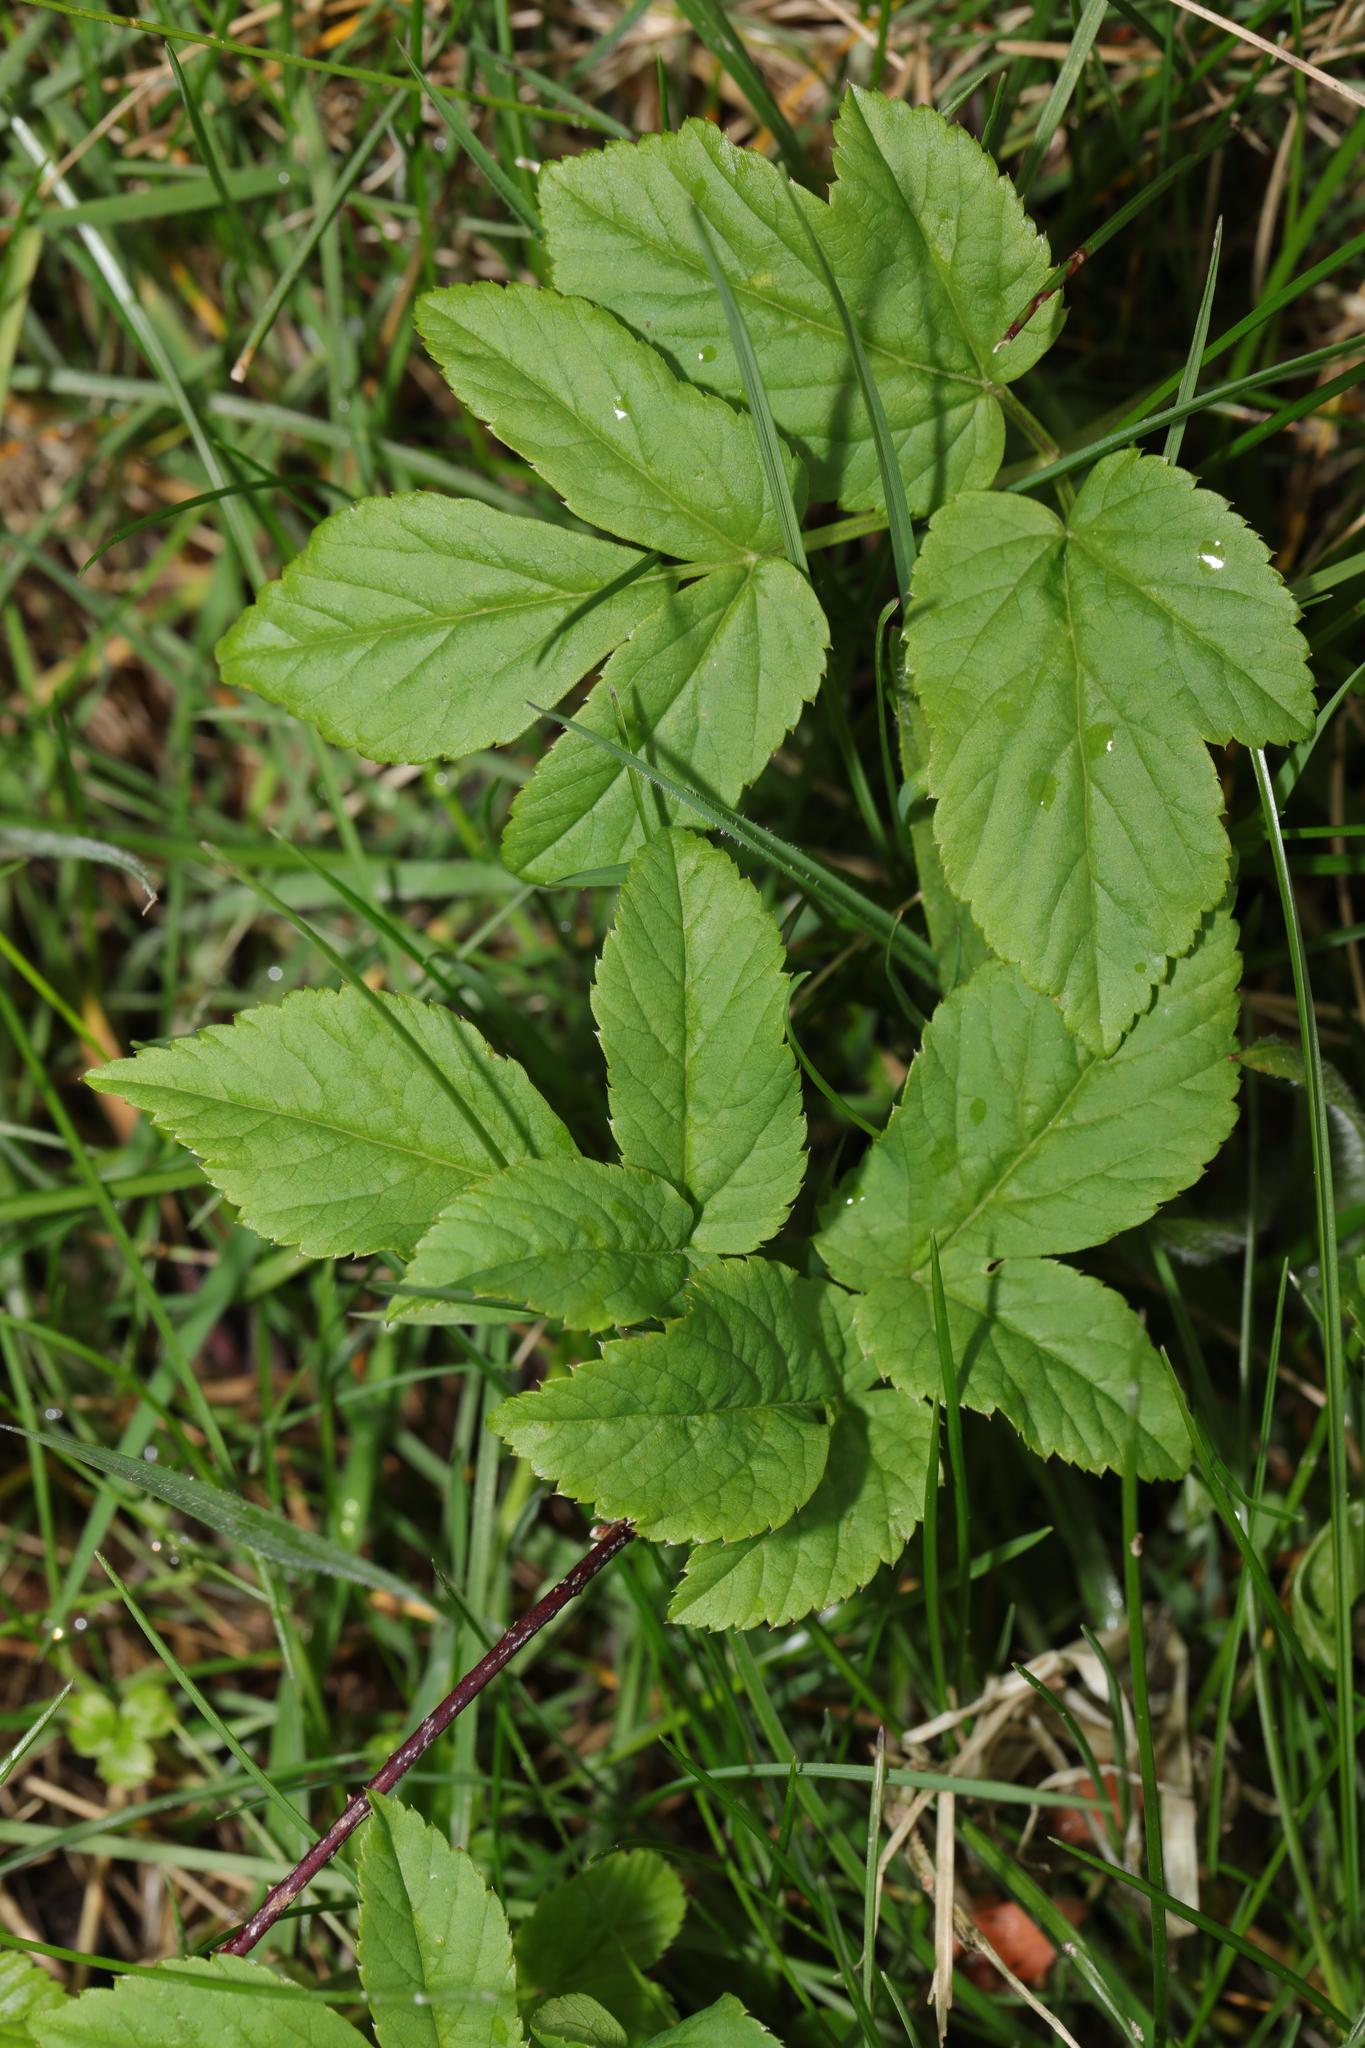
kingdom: Plantae
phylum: Tracheophyta
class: Magnoliopsida
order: Apiales
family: Apiaceae
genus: Aegopodium
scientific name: Aegopodium podagraria
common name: Ground-elder
